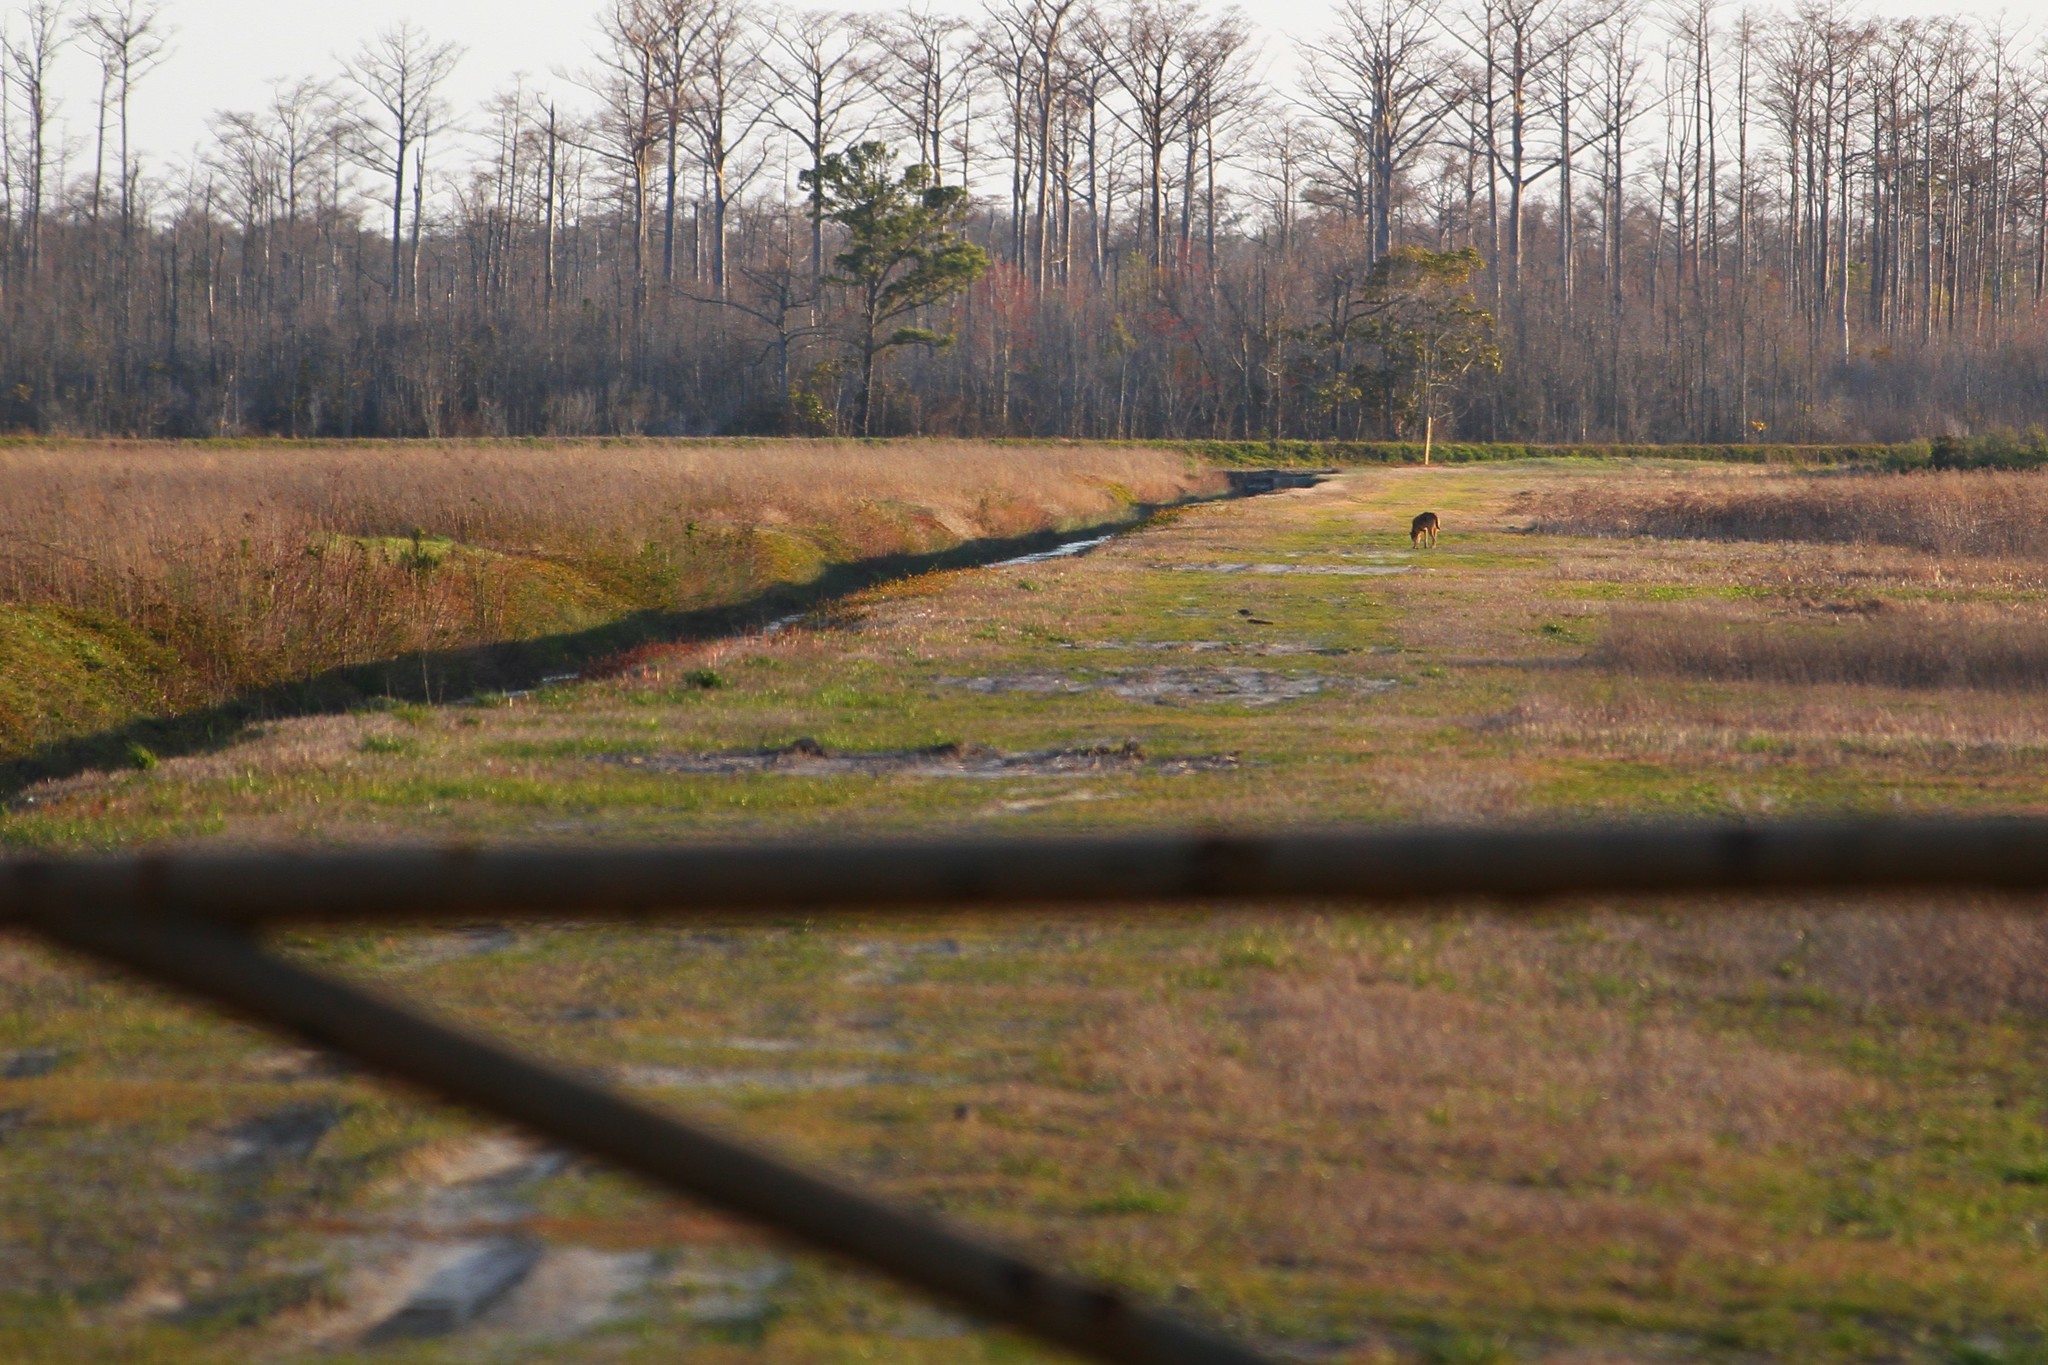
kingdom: Animalia
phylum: Chordata
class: Mammalia
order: Carnivora
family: Canidae
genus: Canis
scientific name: Canis lupus
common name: Gray wolf
